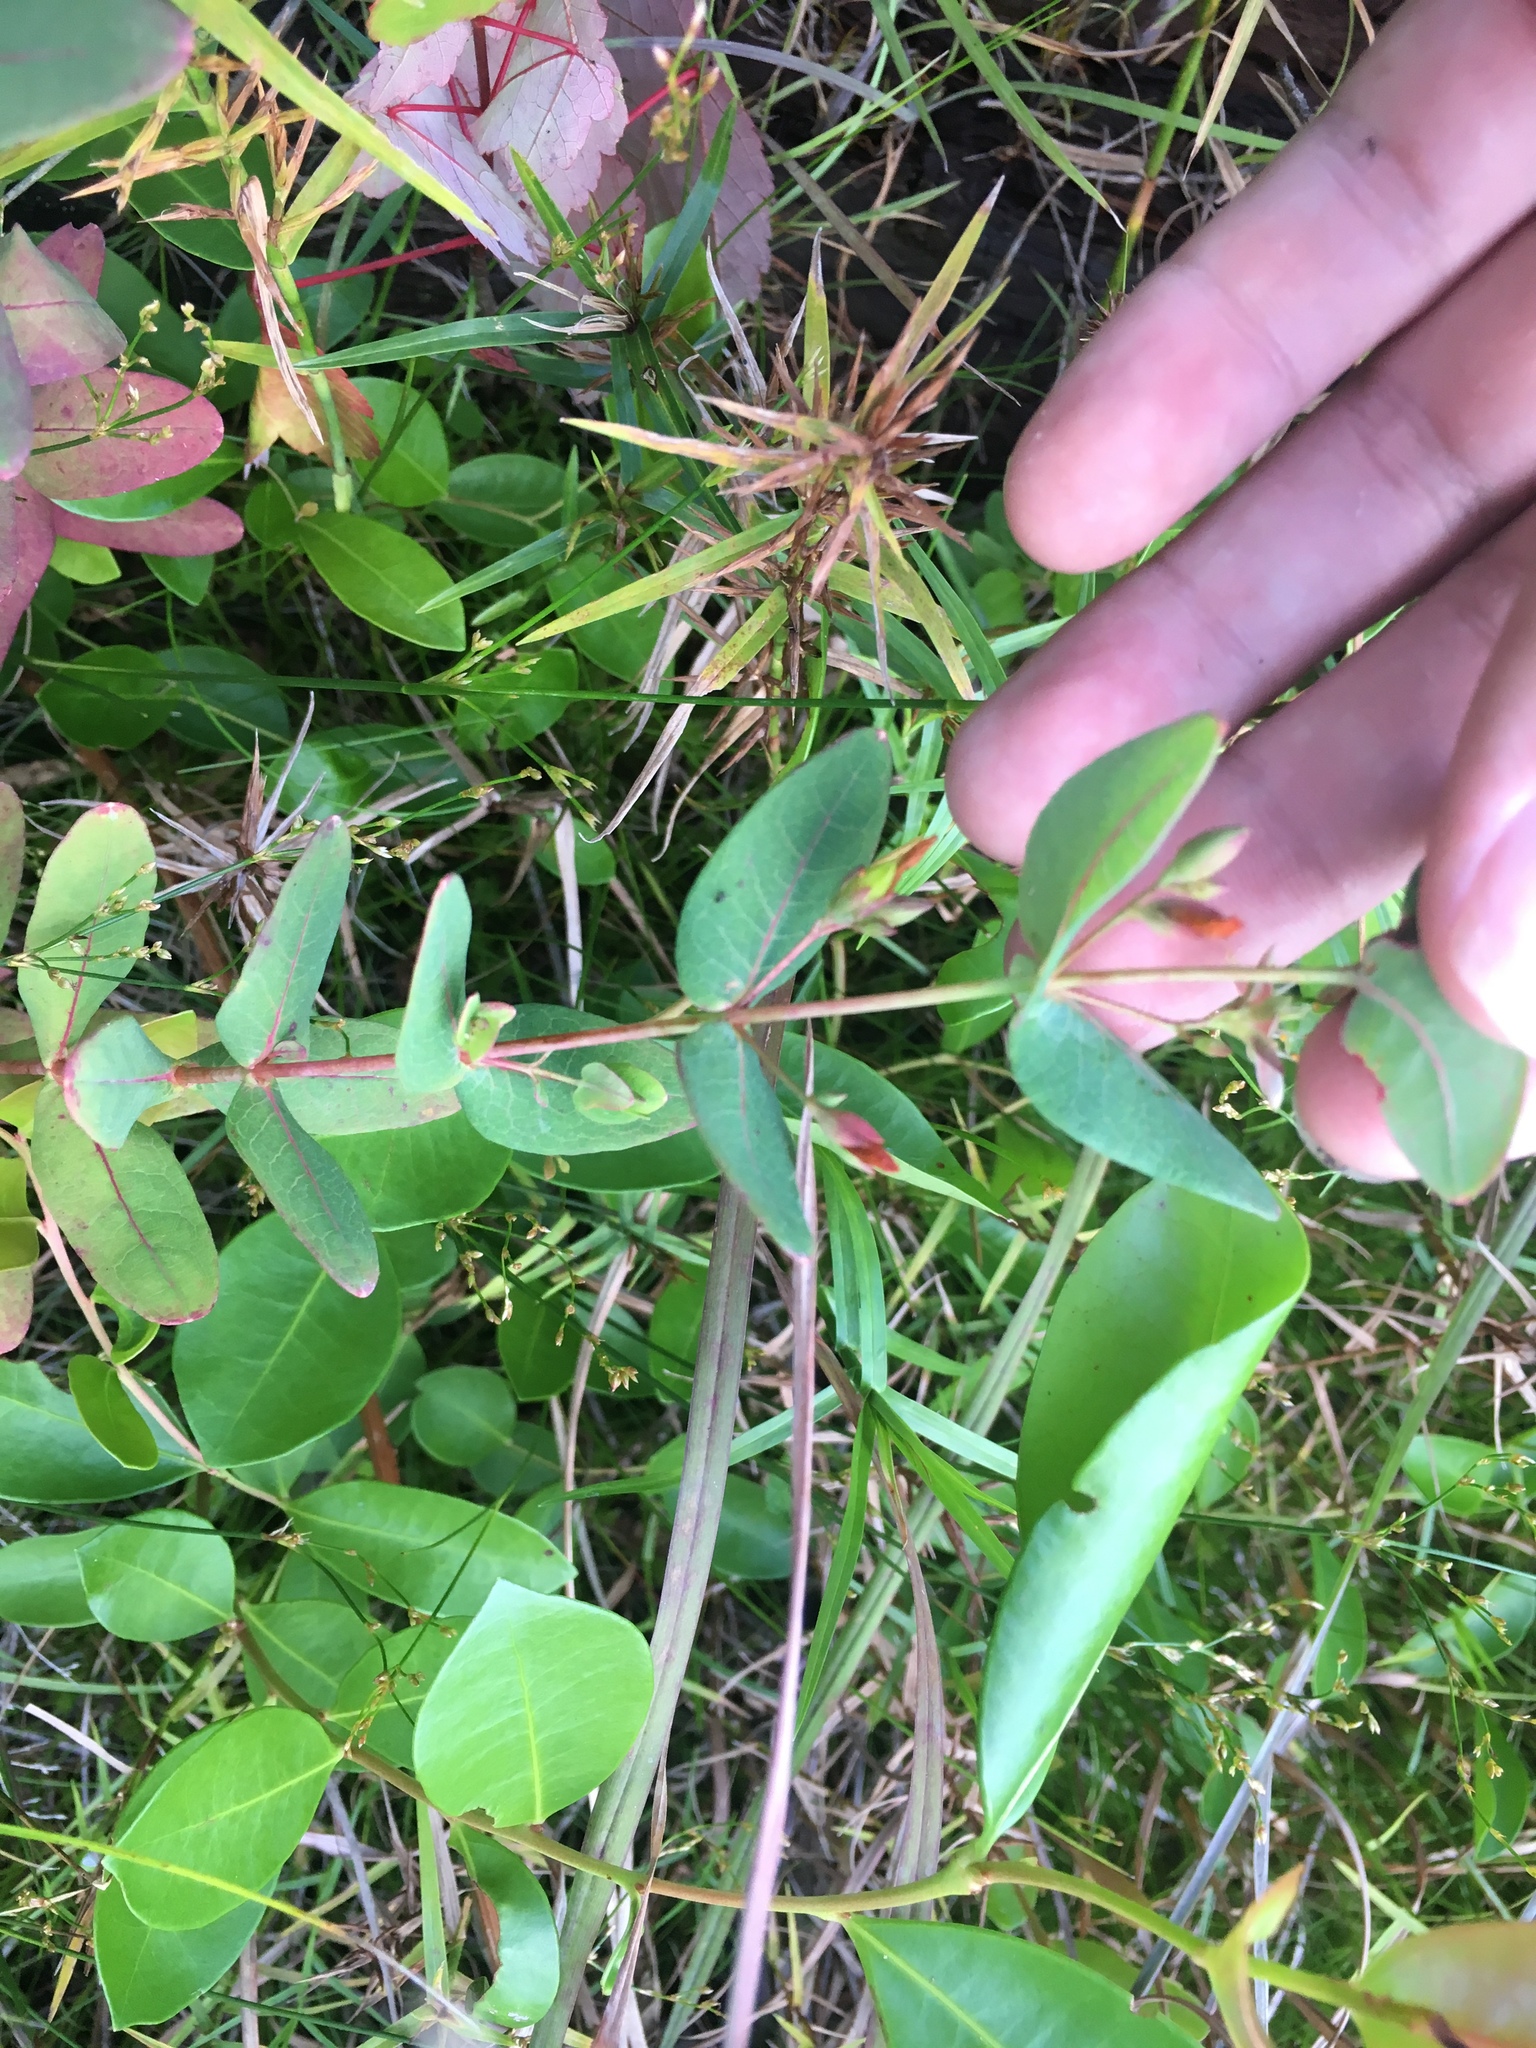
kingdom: Plantae
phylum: Tracheophyta
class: Magnoliopsida
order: Malpighiales
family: Hypericaceae
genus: Triadenum
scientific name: Triadenum virginicum
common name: Marsh st. john's-wort
